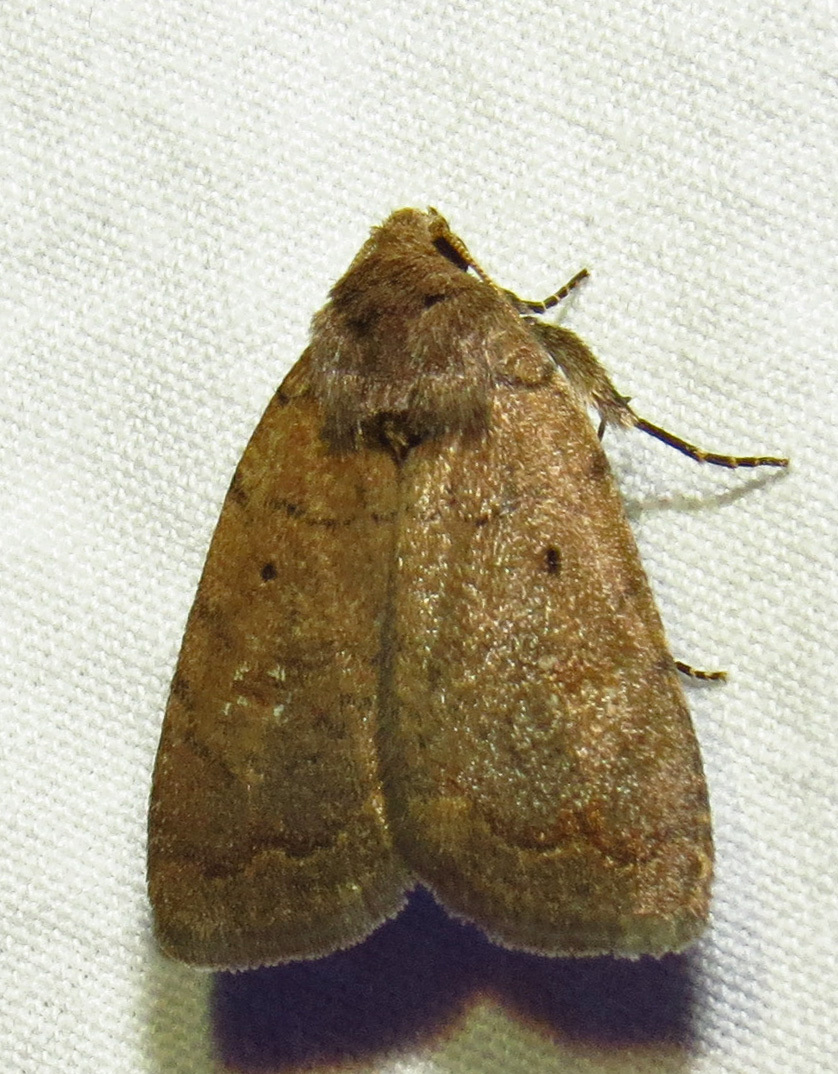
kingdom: Animalia
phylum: Arthropoda
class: Insecta
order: Lepidoptera
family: Noctuidae
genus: Athetis
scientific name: Athetis tarda
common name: Slowpoke moth
